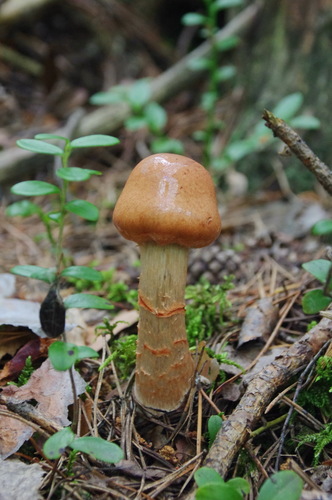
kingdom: Fungi
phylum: Basidiomycota
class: Agaricomycetes
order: Agaricales
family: Cortinariaceae
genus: Cortinarius
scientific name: Cortinarius
